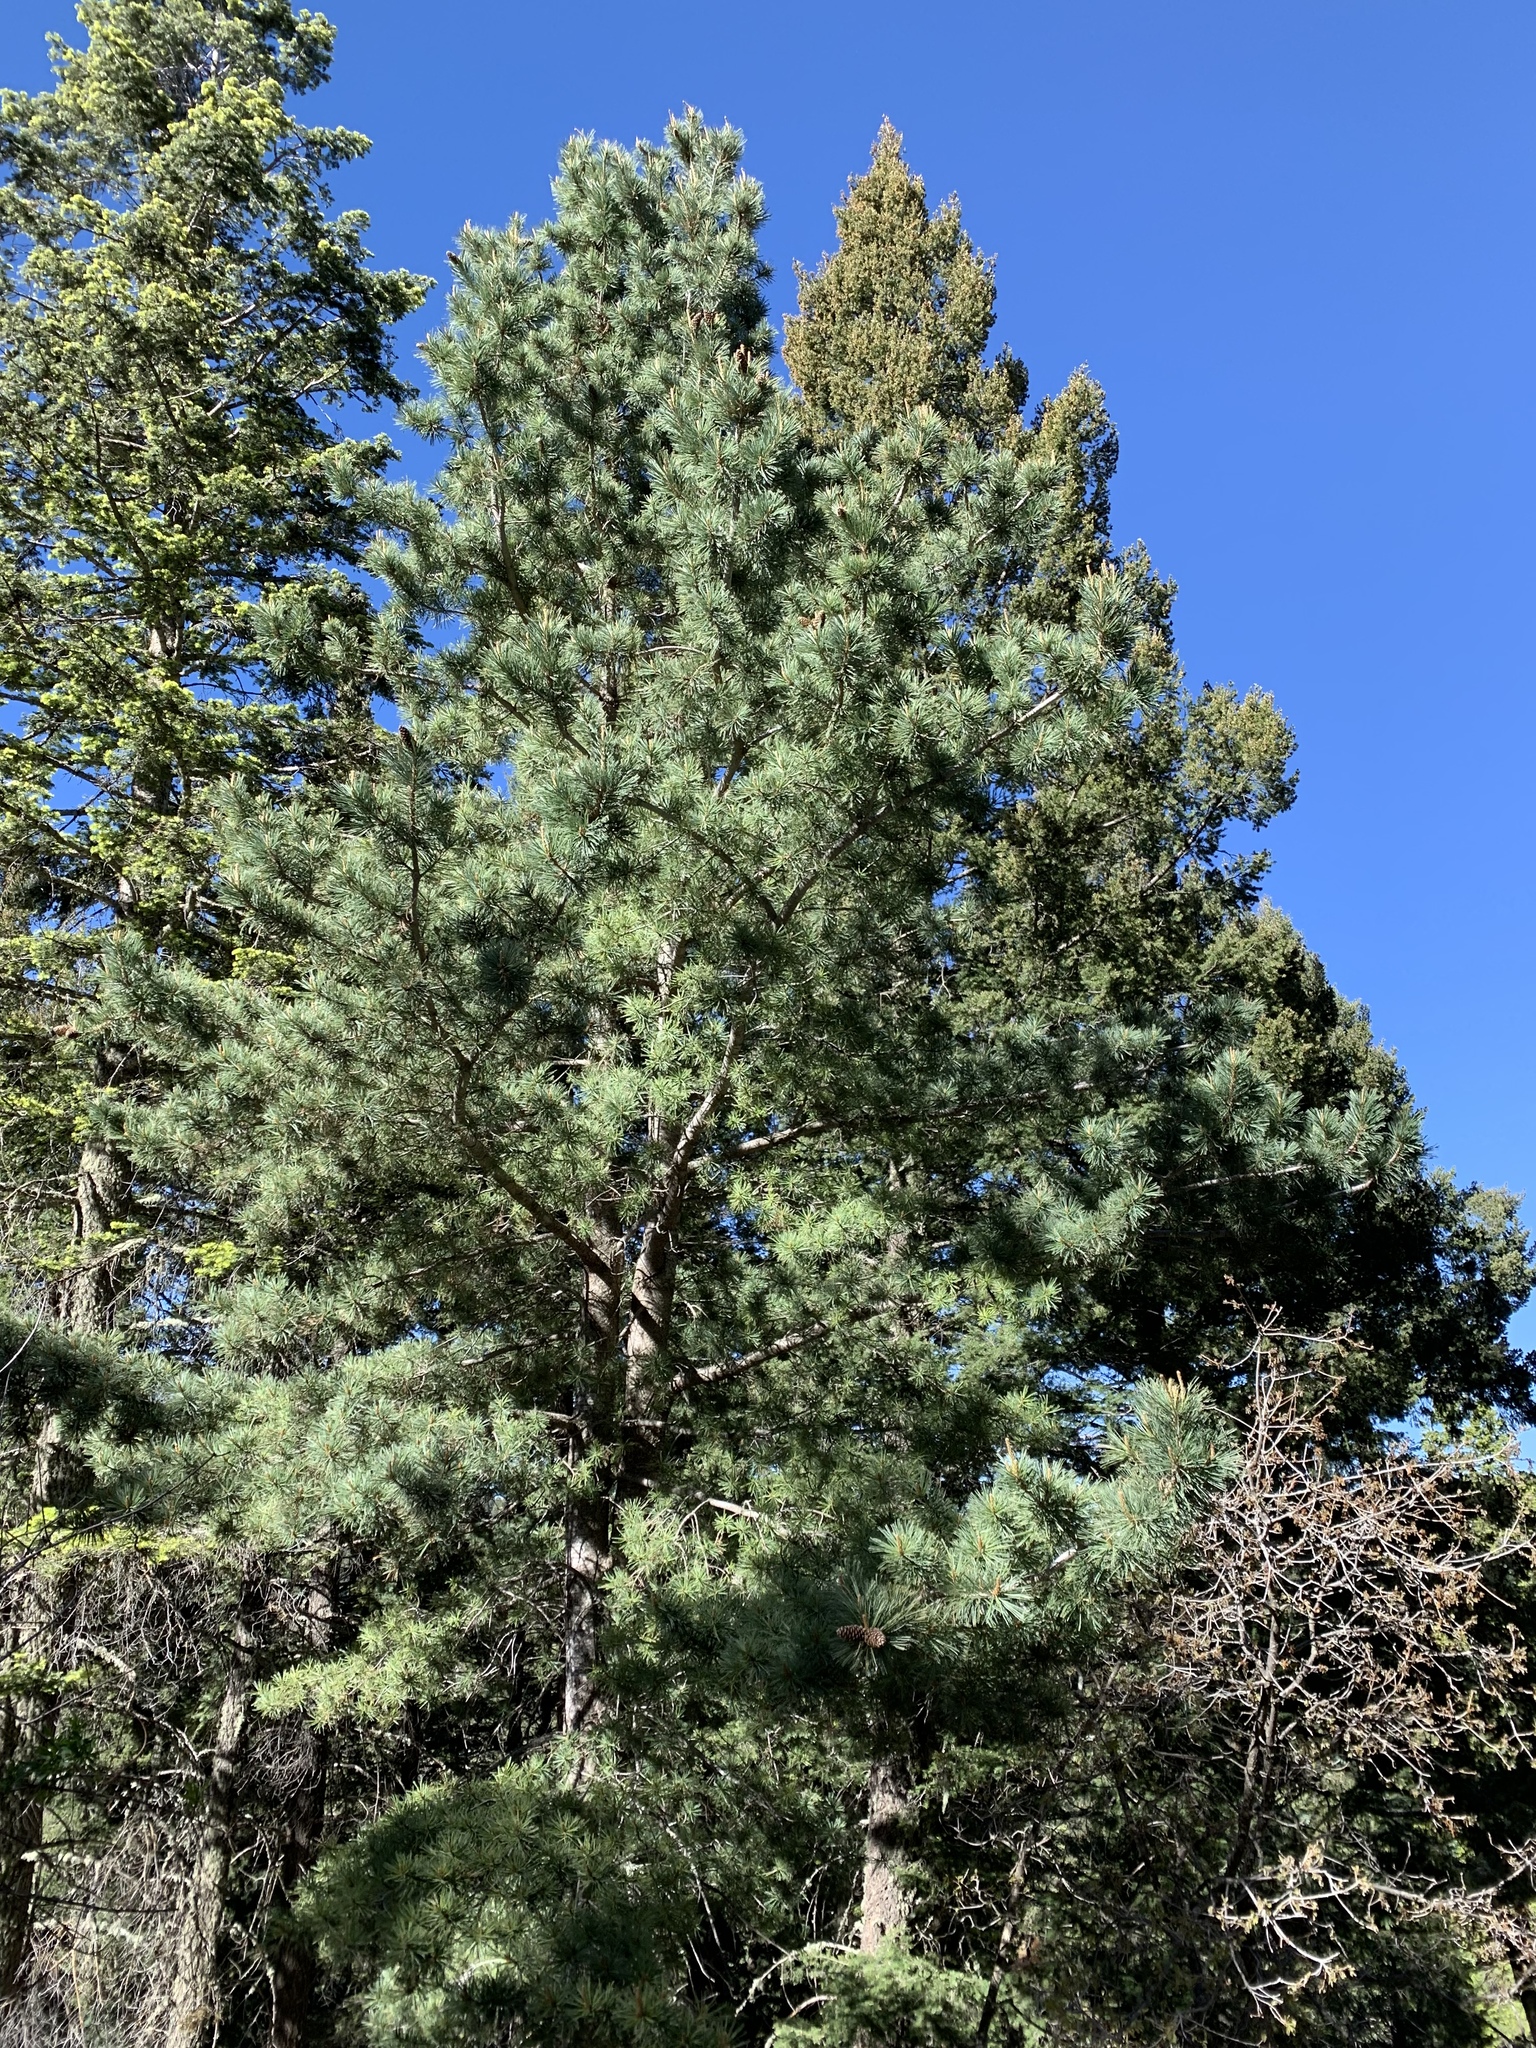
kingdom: Plantae
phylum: Tracheophyta
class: Pinopsida
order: Pinales
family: Pinaceae
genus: Pinus
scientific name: Pinus strobiformis
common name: Southwestern white pine
